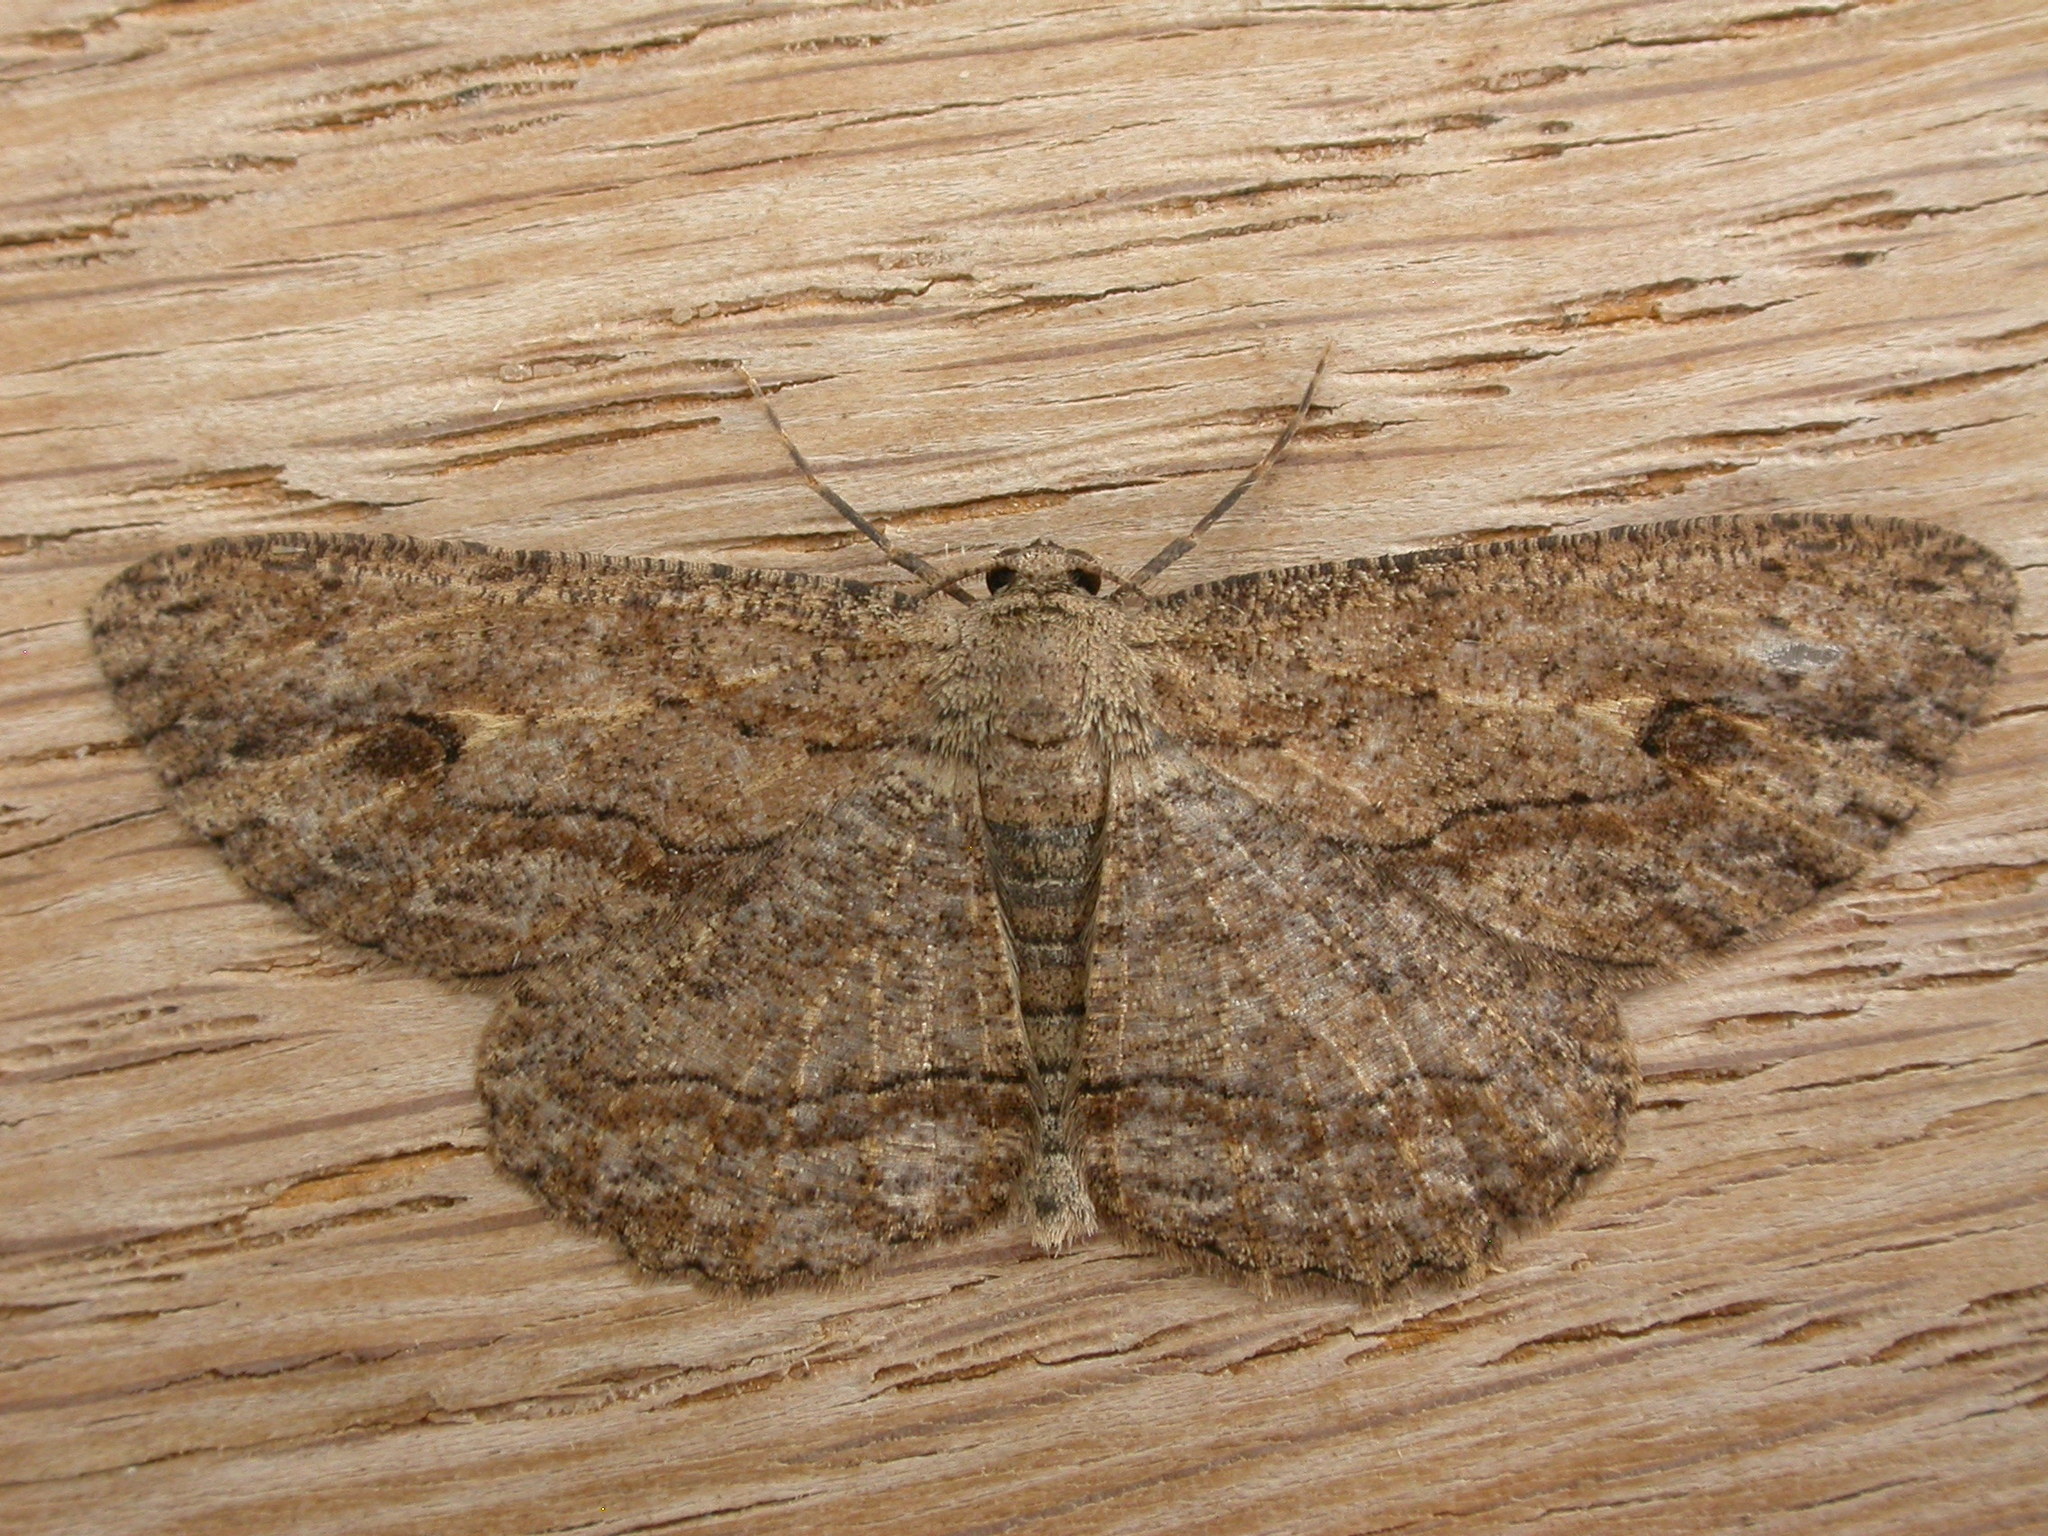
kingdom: Animalia
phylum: Arthropoda
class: Insecta
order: Lepidoptera
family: Geometridae
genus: Ectropis
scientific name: Ectropis excursaria
